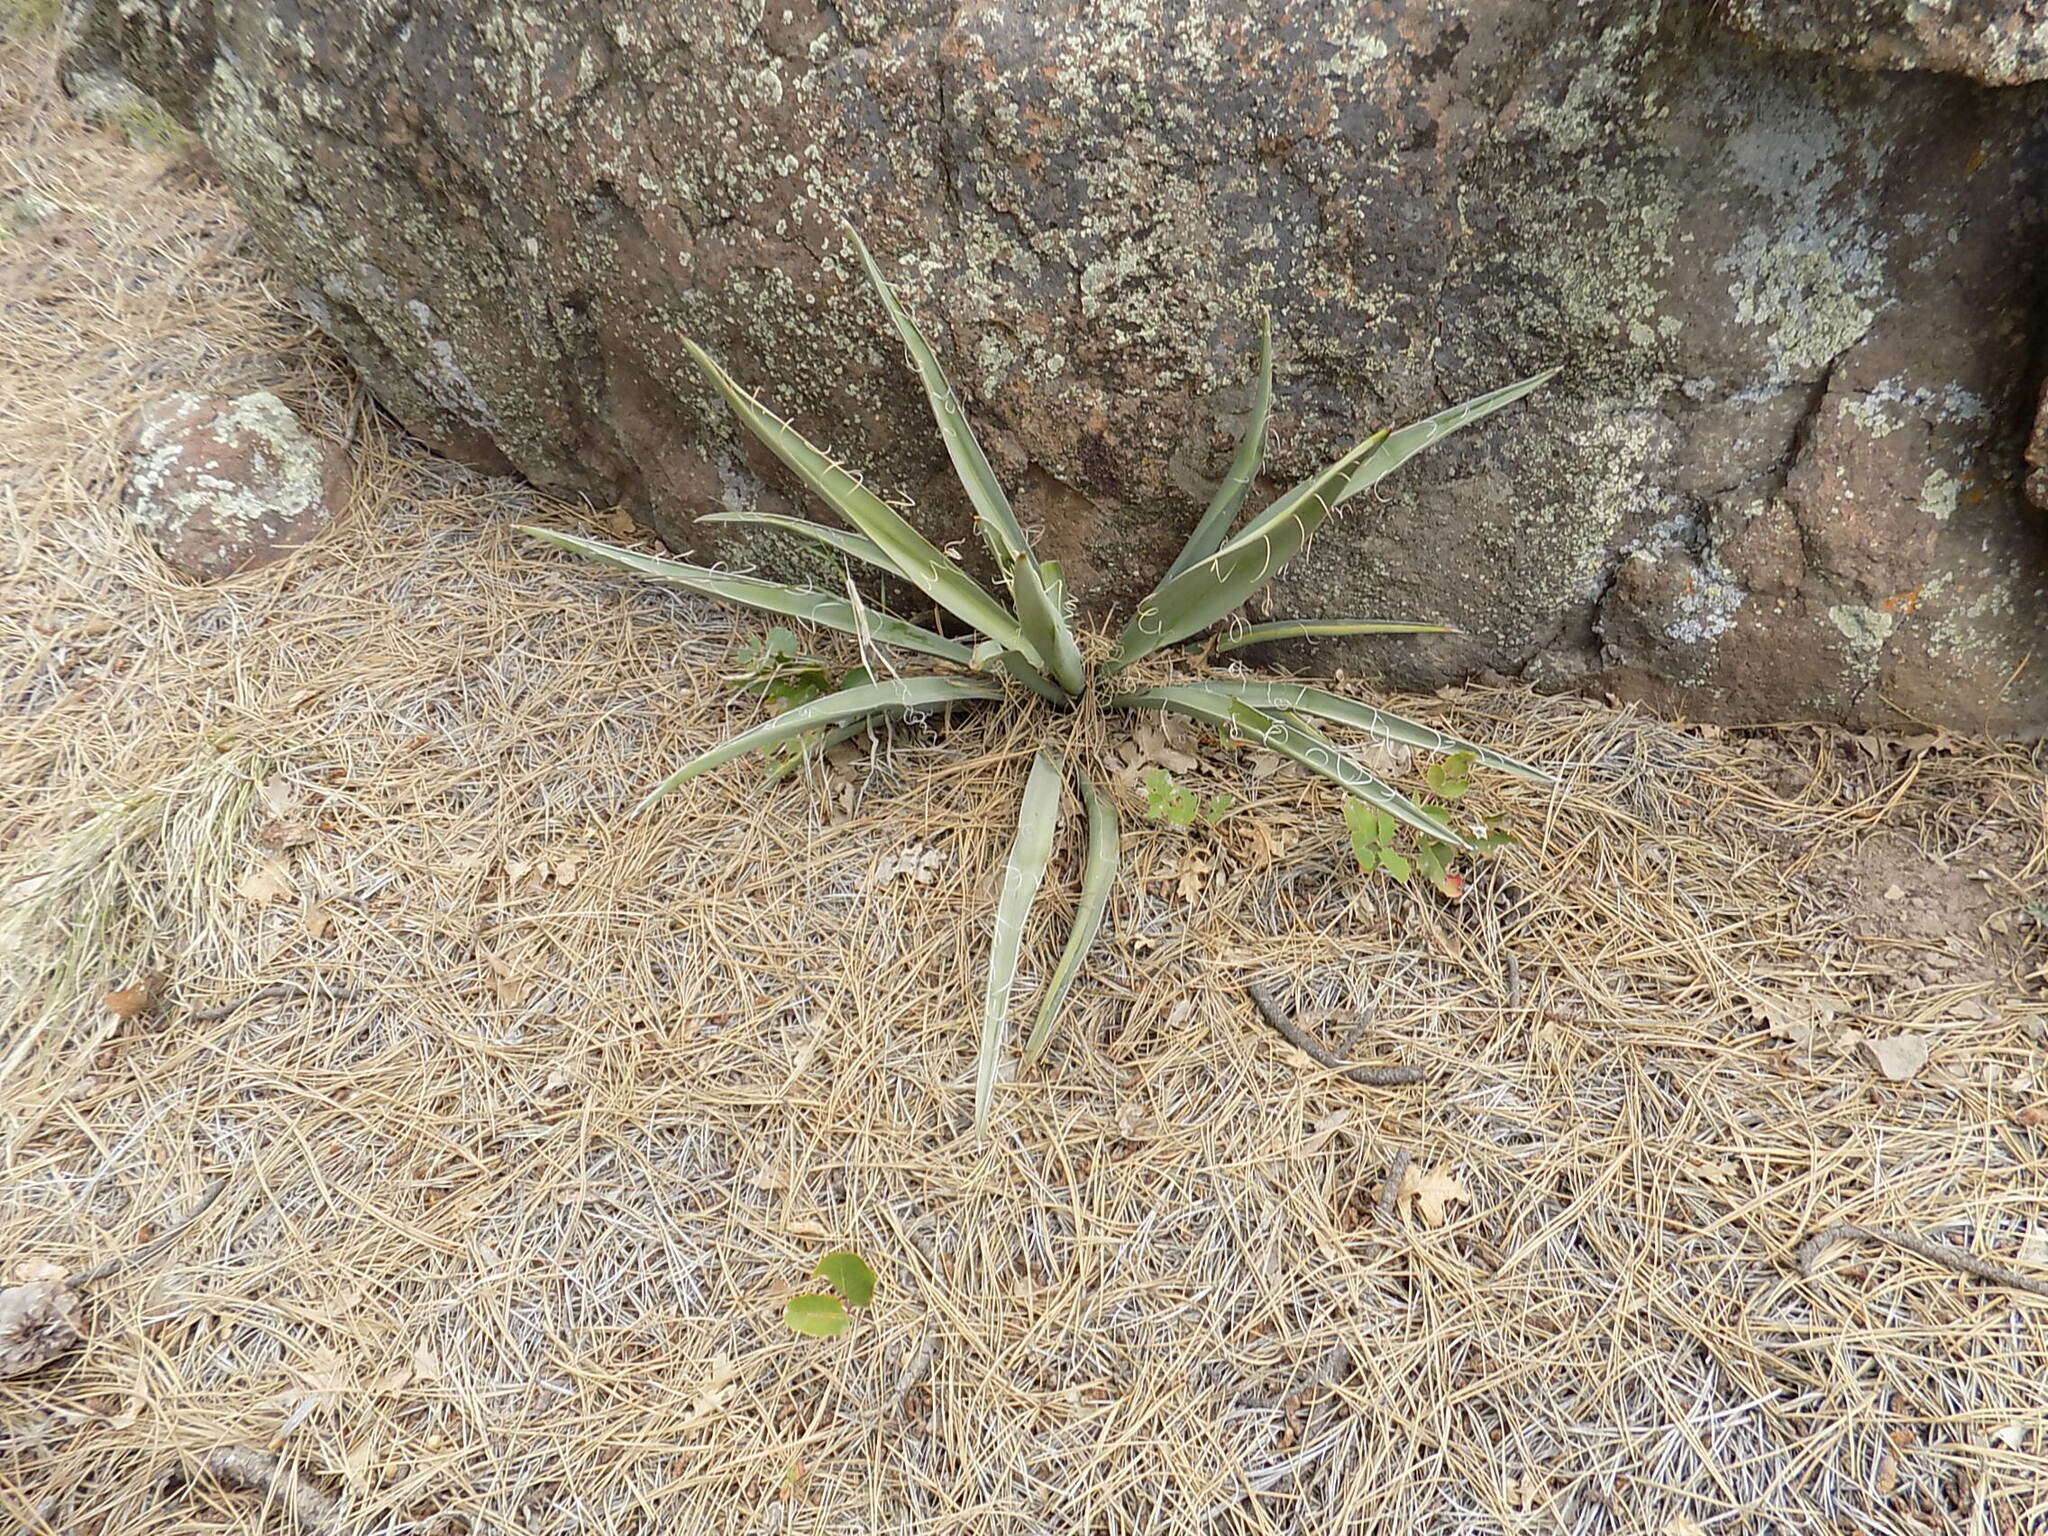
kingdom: Plantae
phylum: Tracheophyta
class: Liliopsida
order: Asparagales
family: Asparagaceae
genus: Yucca
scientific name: Yucca baccata
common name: Banana yucca
